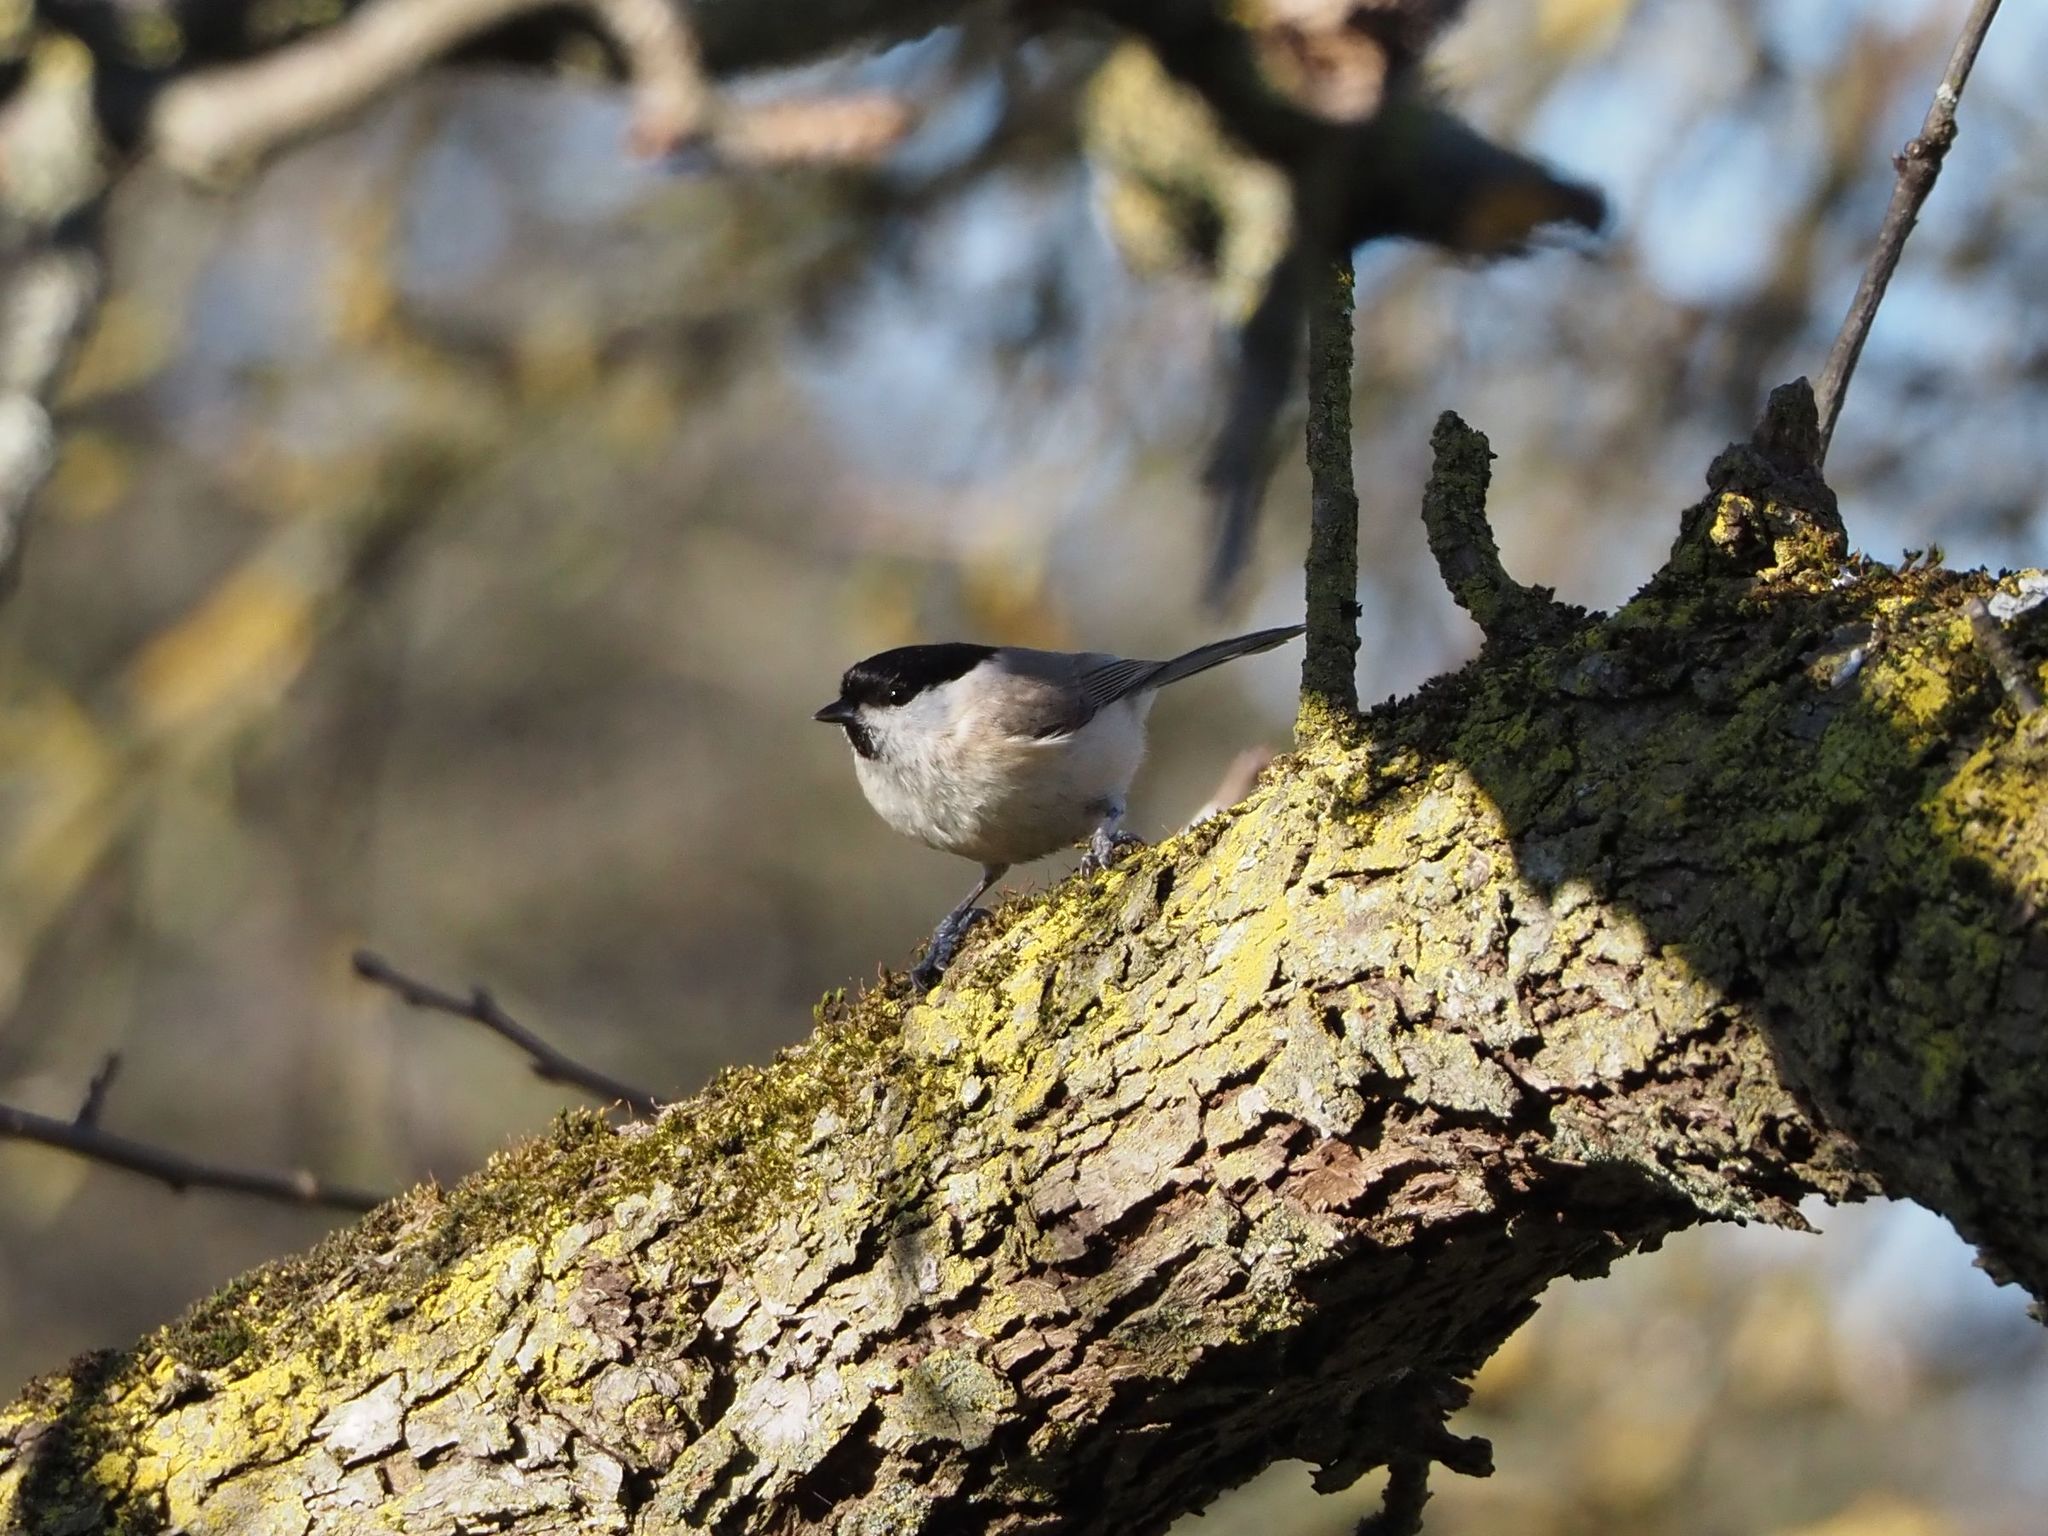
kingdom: Animalia
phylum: Chordata
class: Aves
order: Passeriformes
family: Paridae
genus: Poecile
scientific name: Poecile palustris
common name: Marsh tit
